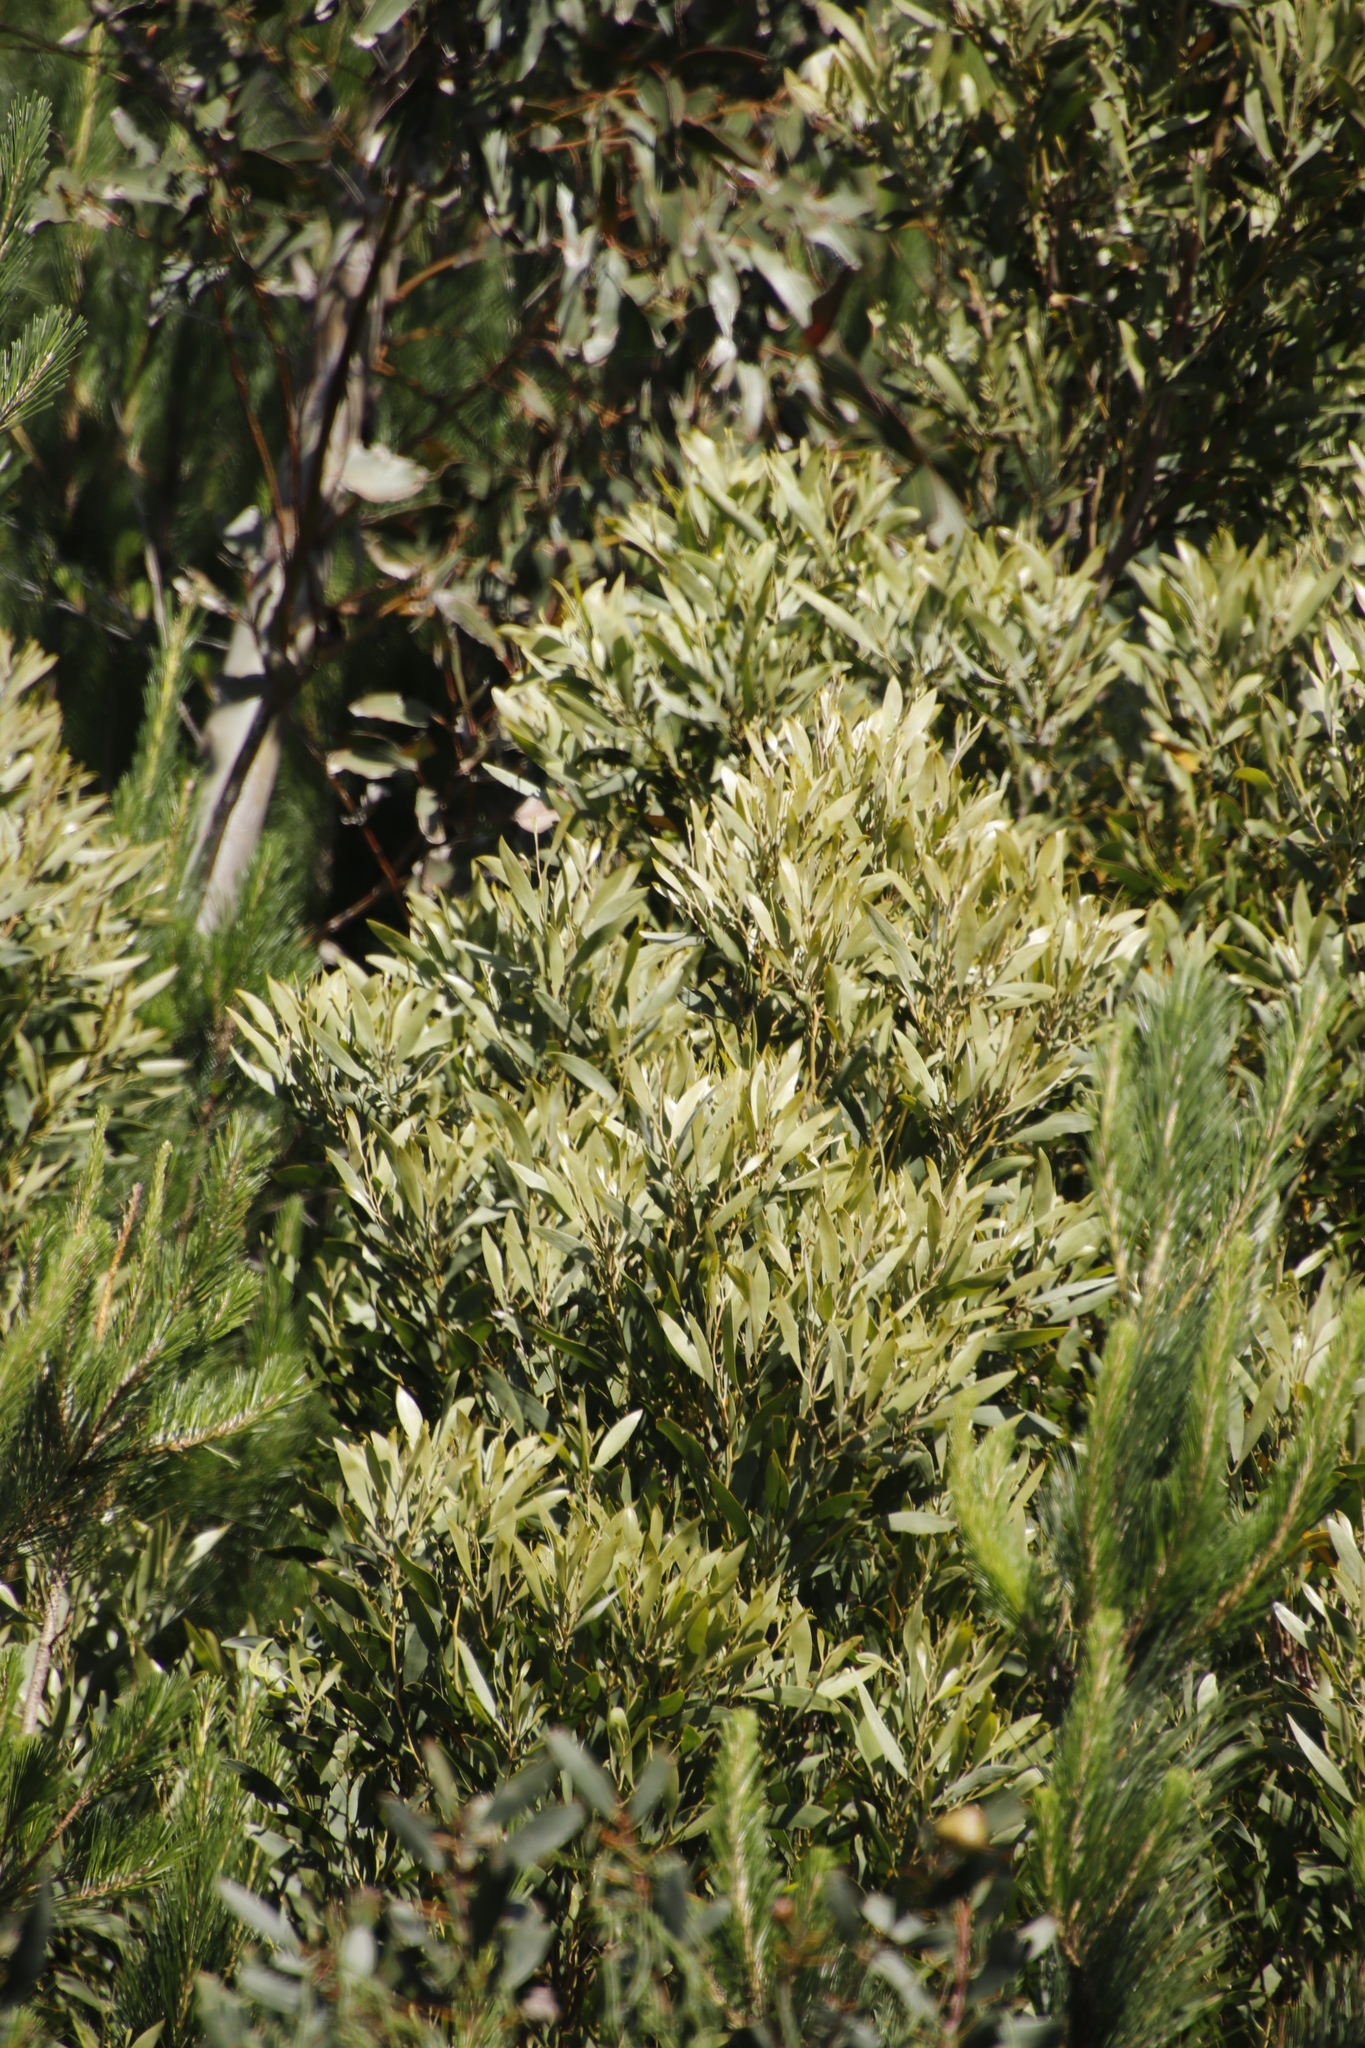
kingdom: Plantae
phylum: Tracheophyta
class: Magnoliopsida
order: Fabales
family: Fabaceae
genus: Acacia
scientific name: Acacia melanoxylon
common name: Blackwood
